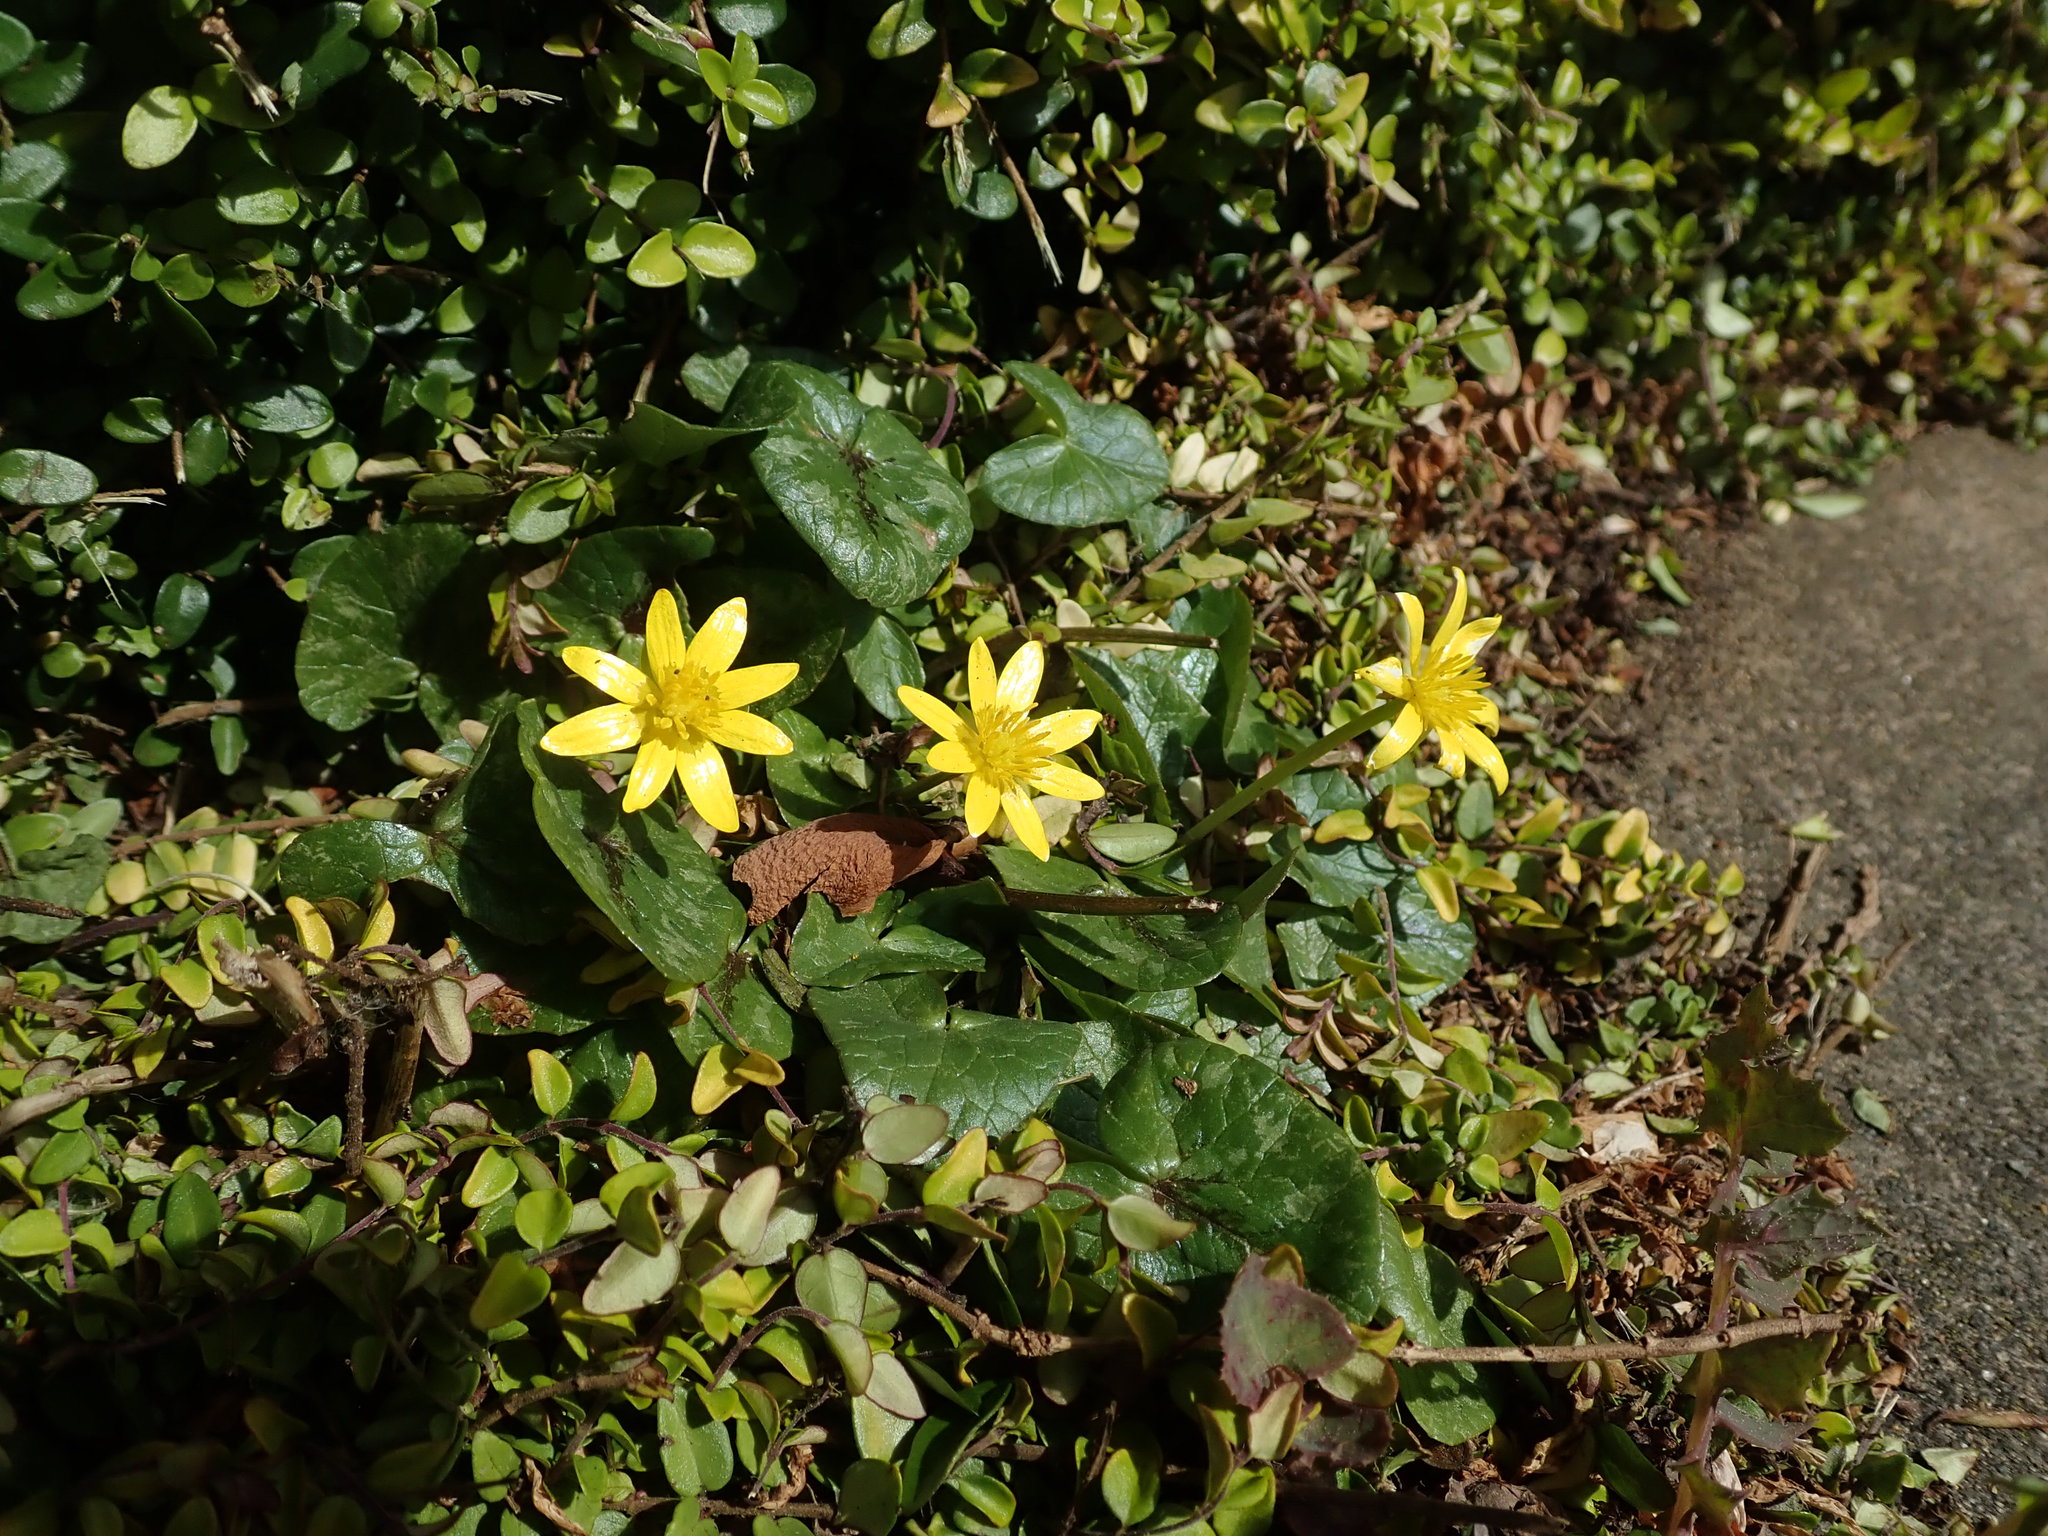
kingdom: Plantae
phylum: Tracheophyta
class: Magnoliopsida
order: Ranunculales
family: Ranunculaceae
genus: Ficaria
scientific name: Ficaria verna
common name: Lesser celandine
